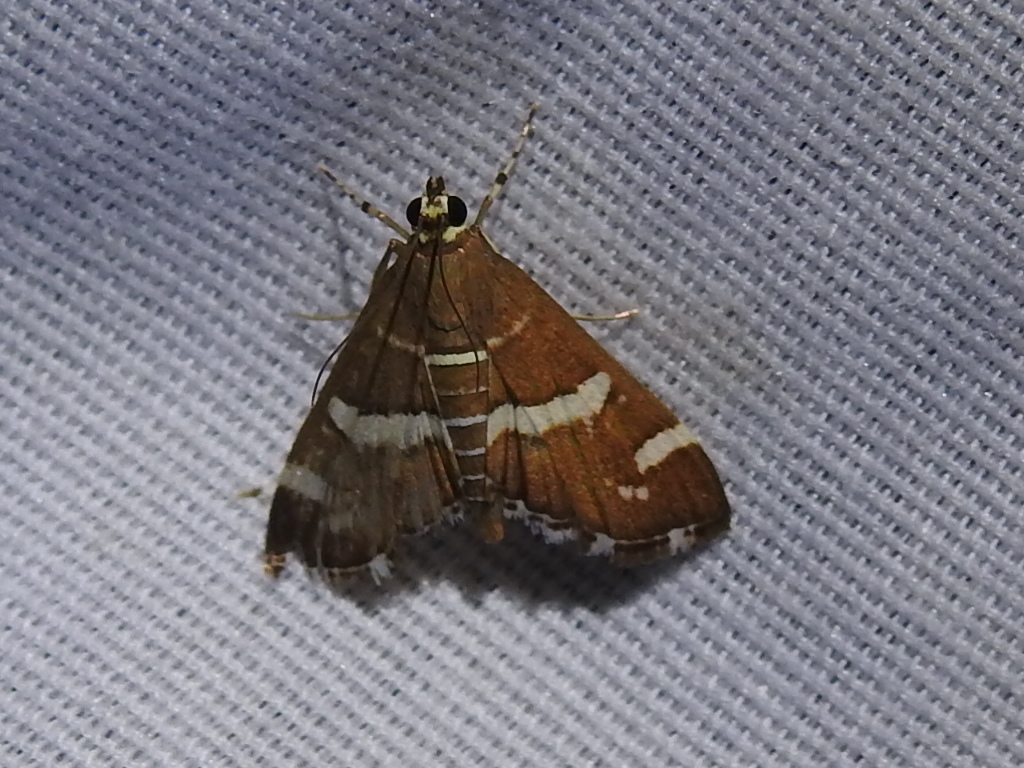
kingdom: Animalia
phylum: Arthropoda
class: Insecta
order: Lepidoptera
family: Crambidae
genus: Spoladea
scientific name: Spoladea recurvalis
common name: Beet webworm moth
